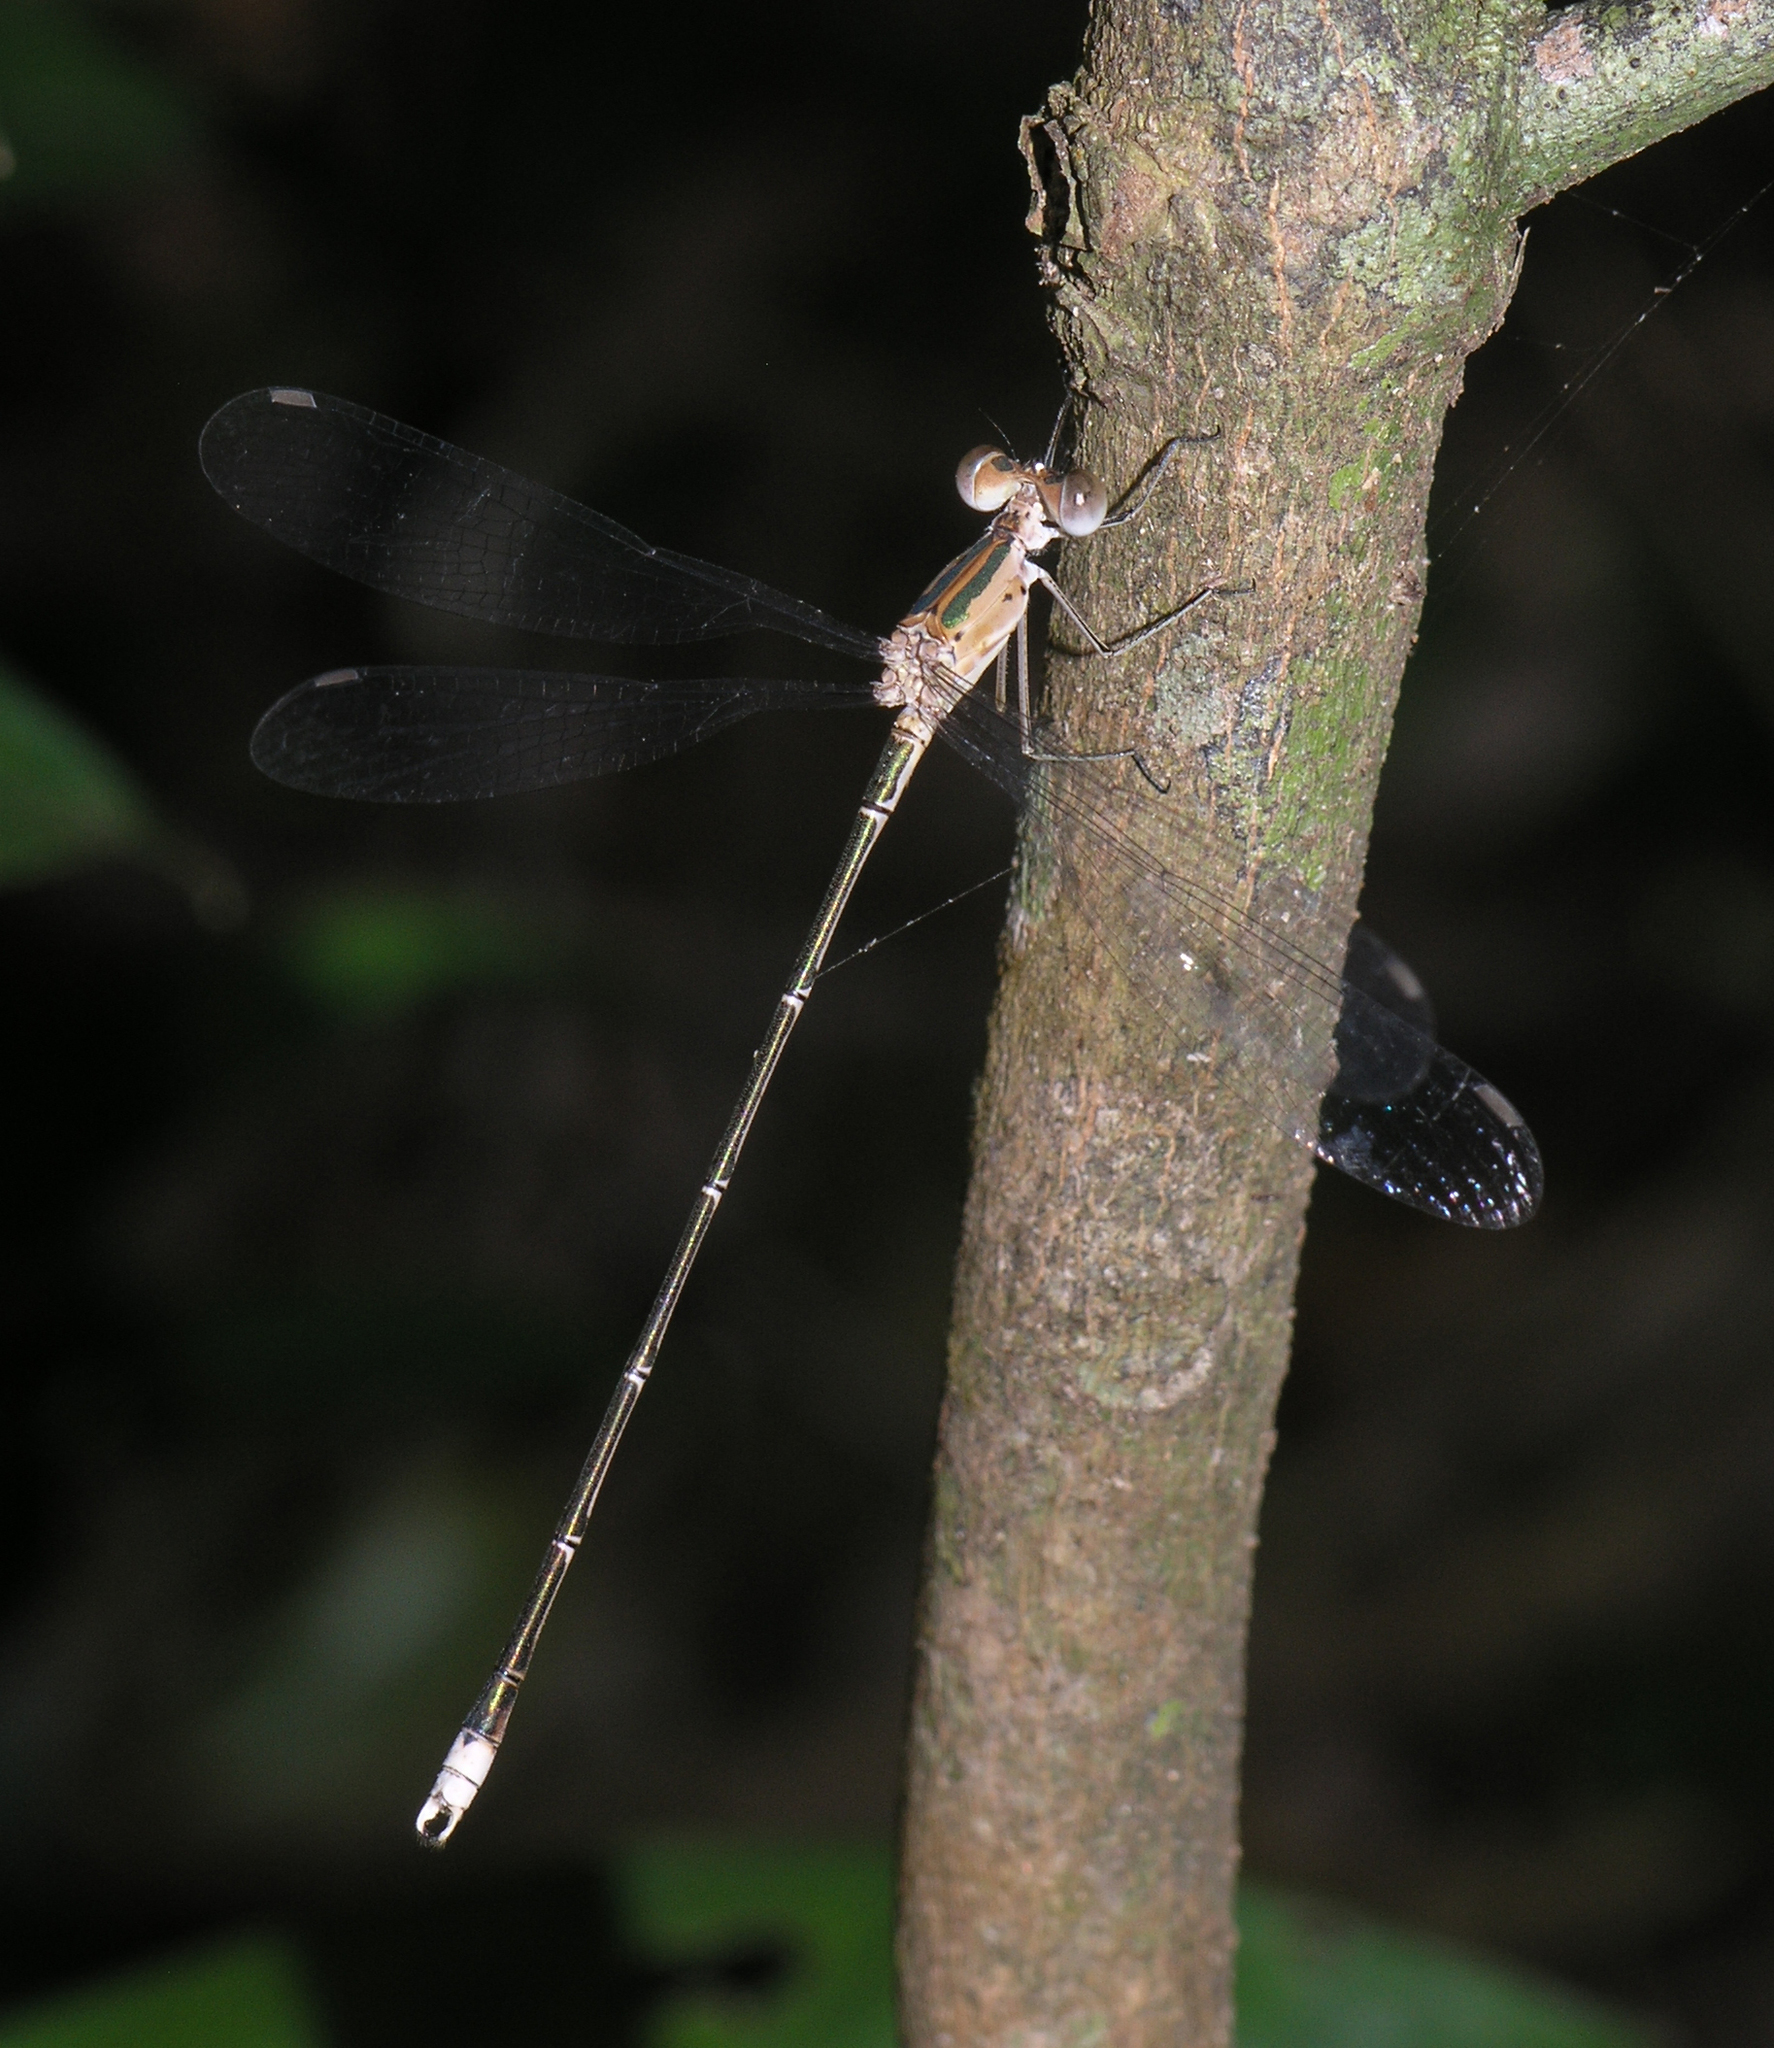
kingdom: Animalia
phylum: Arthropoda
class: Insecta
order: Odonata
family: Lestidae
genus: Lestes
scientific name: Lestes elatus
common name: Emerald spreadwing
